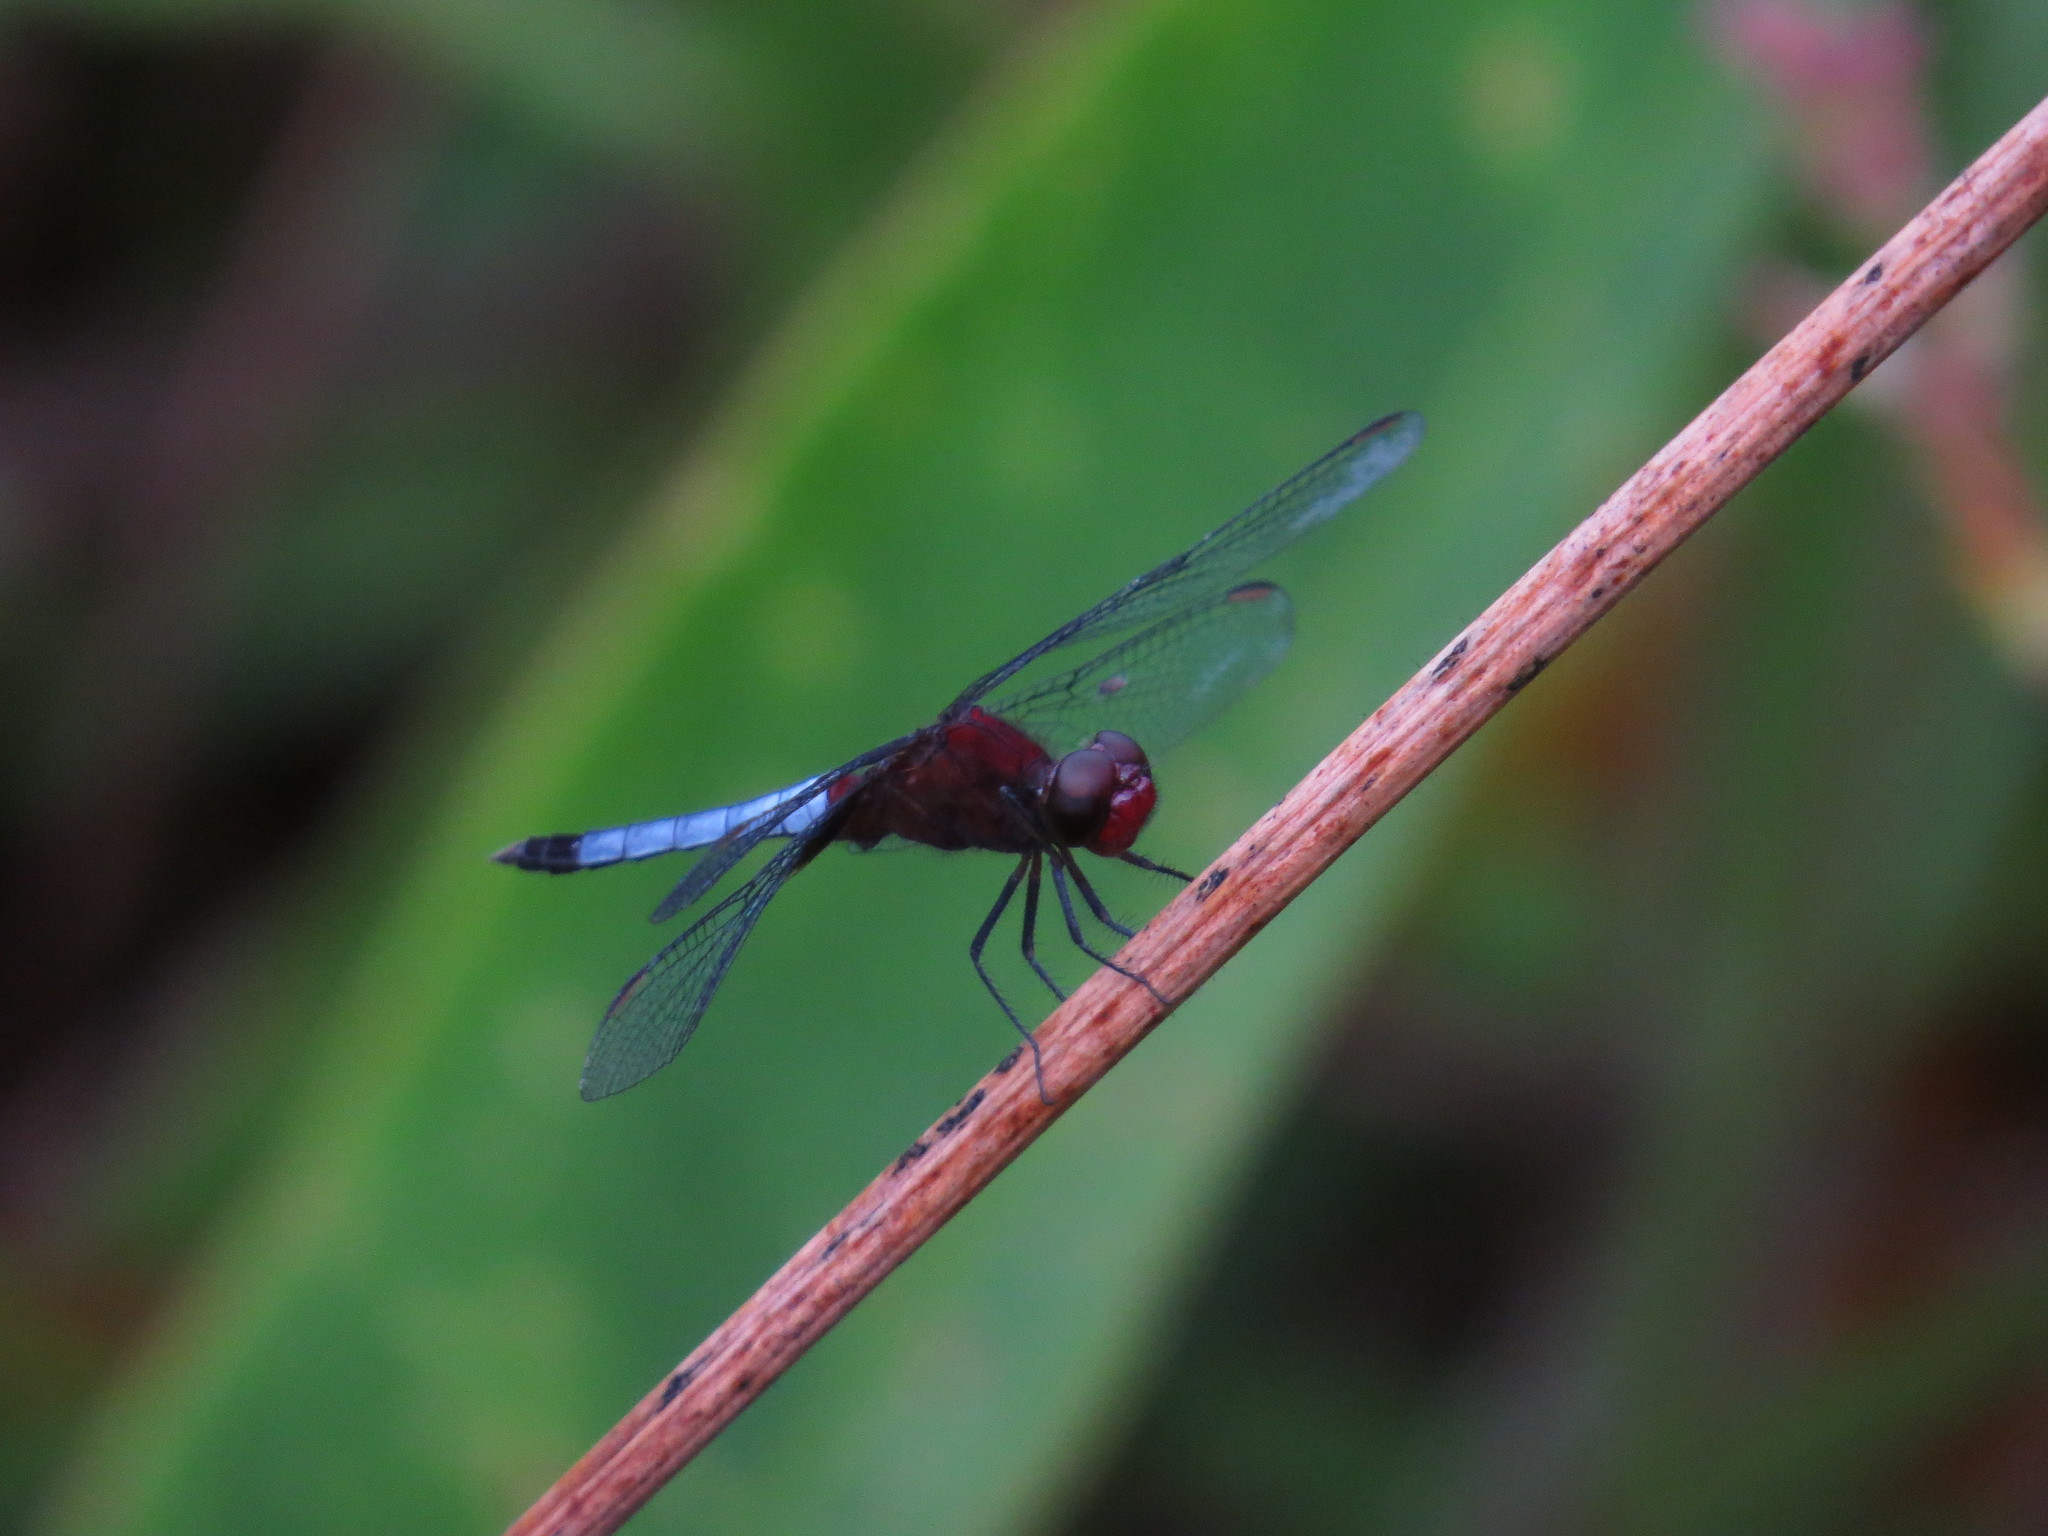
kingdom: Animalia
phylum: Arthropoda
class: Insecta
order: Odonata
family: Libellulidae
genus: Erythrodiplax
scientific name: Erythrodiplax fusca
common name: Red-faced dragonlet
